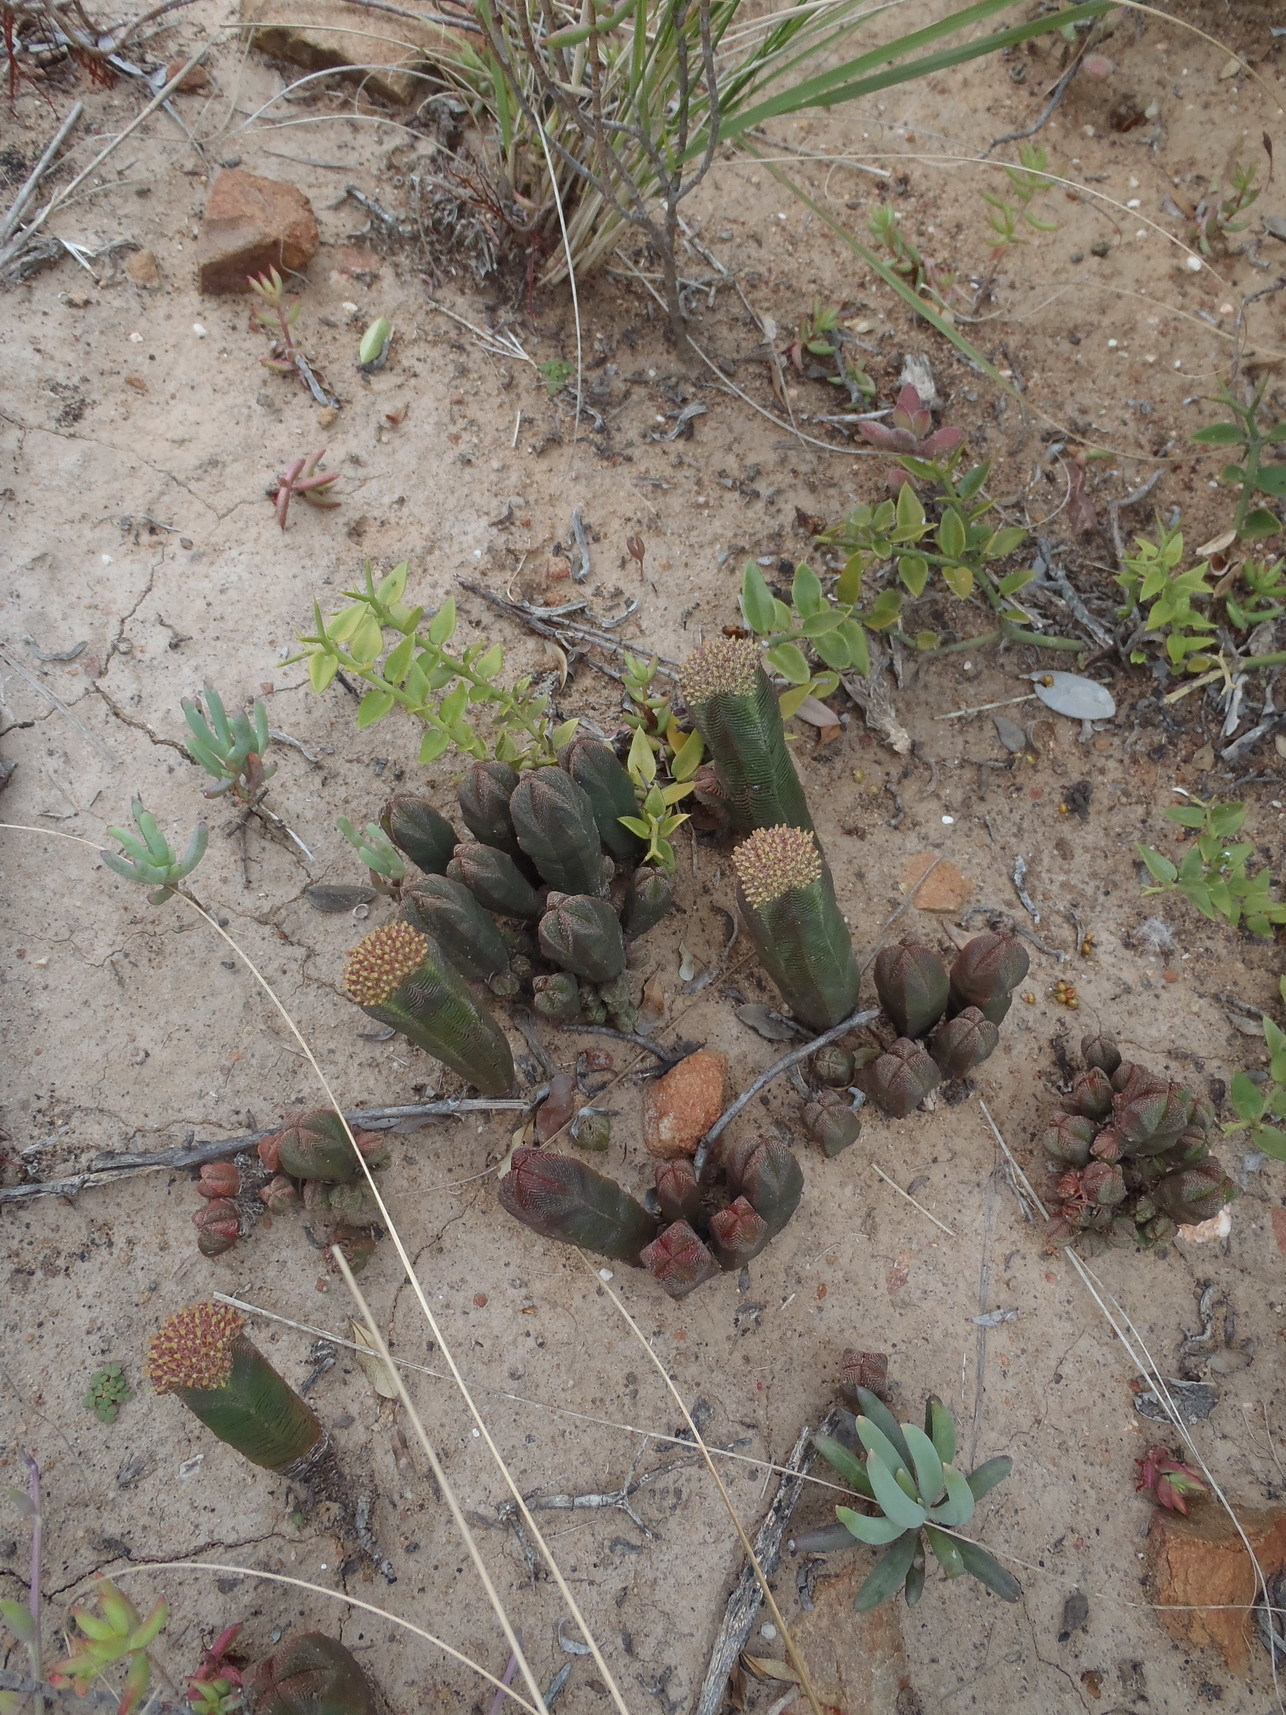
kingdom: Plantae
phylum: Tracheophyta
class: Magnoliopsida
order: Saxifragales
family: Crassulaceae
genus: Crassula
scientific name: Crassula pyramidalis
